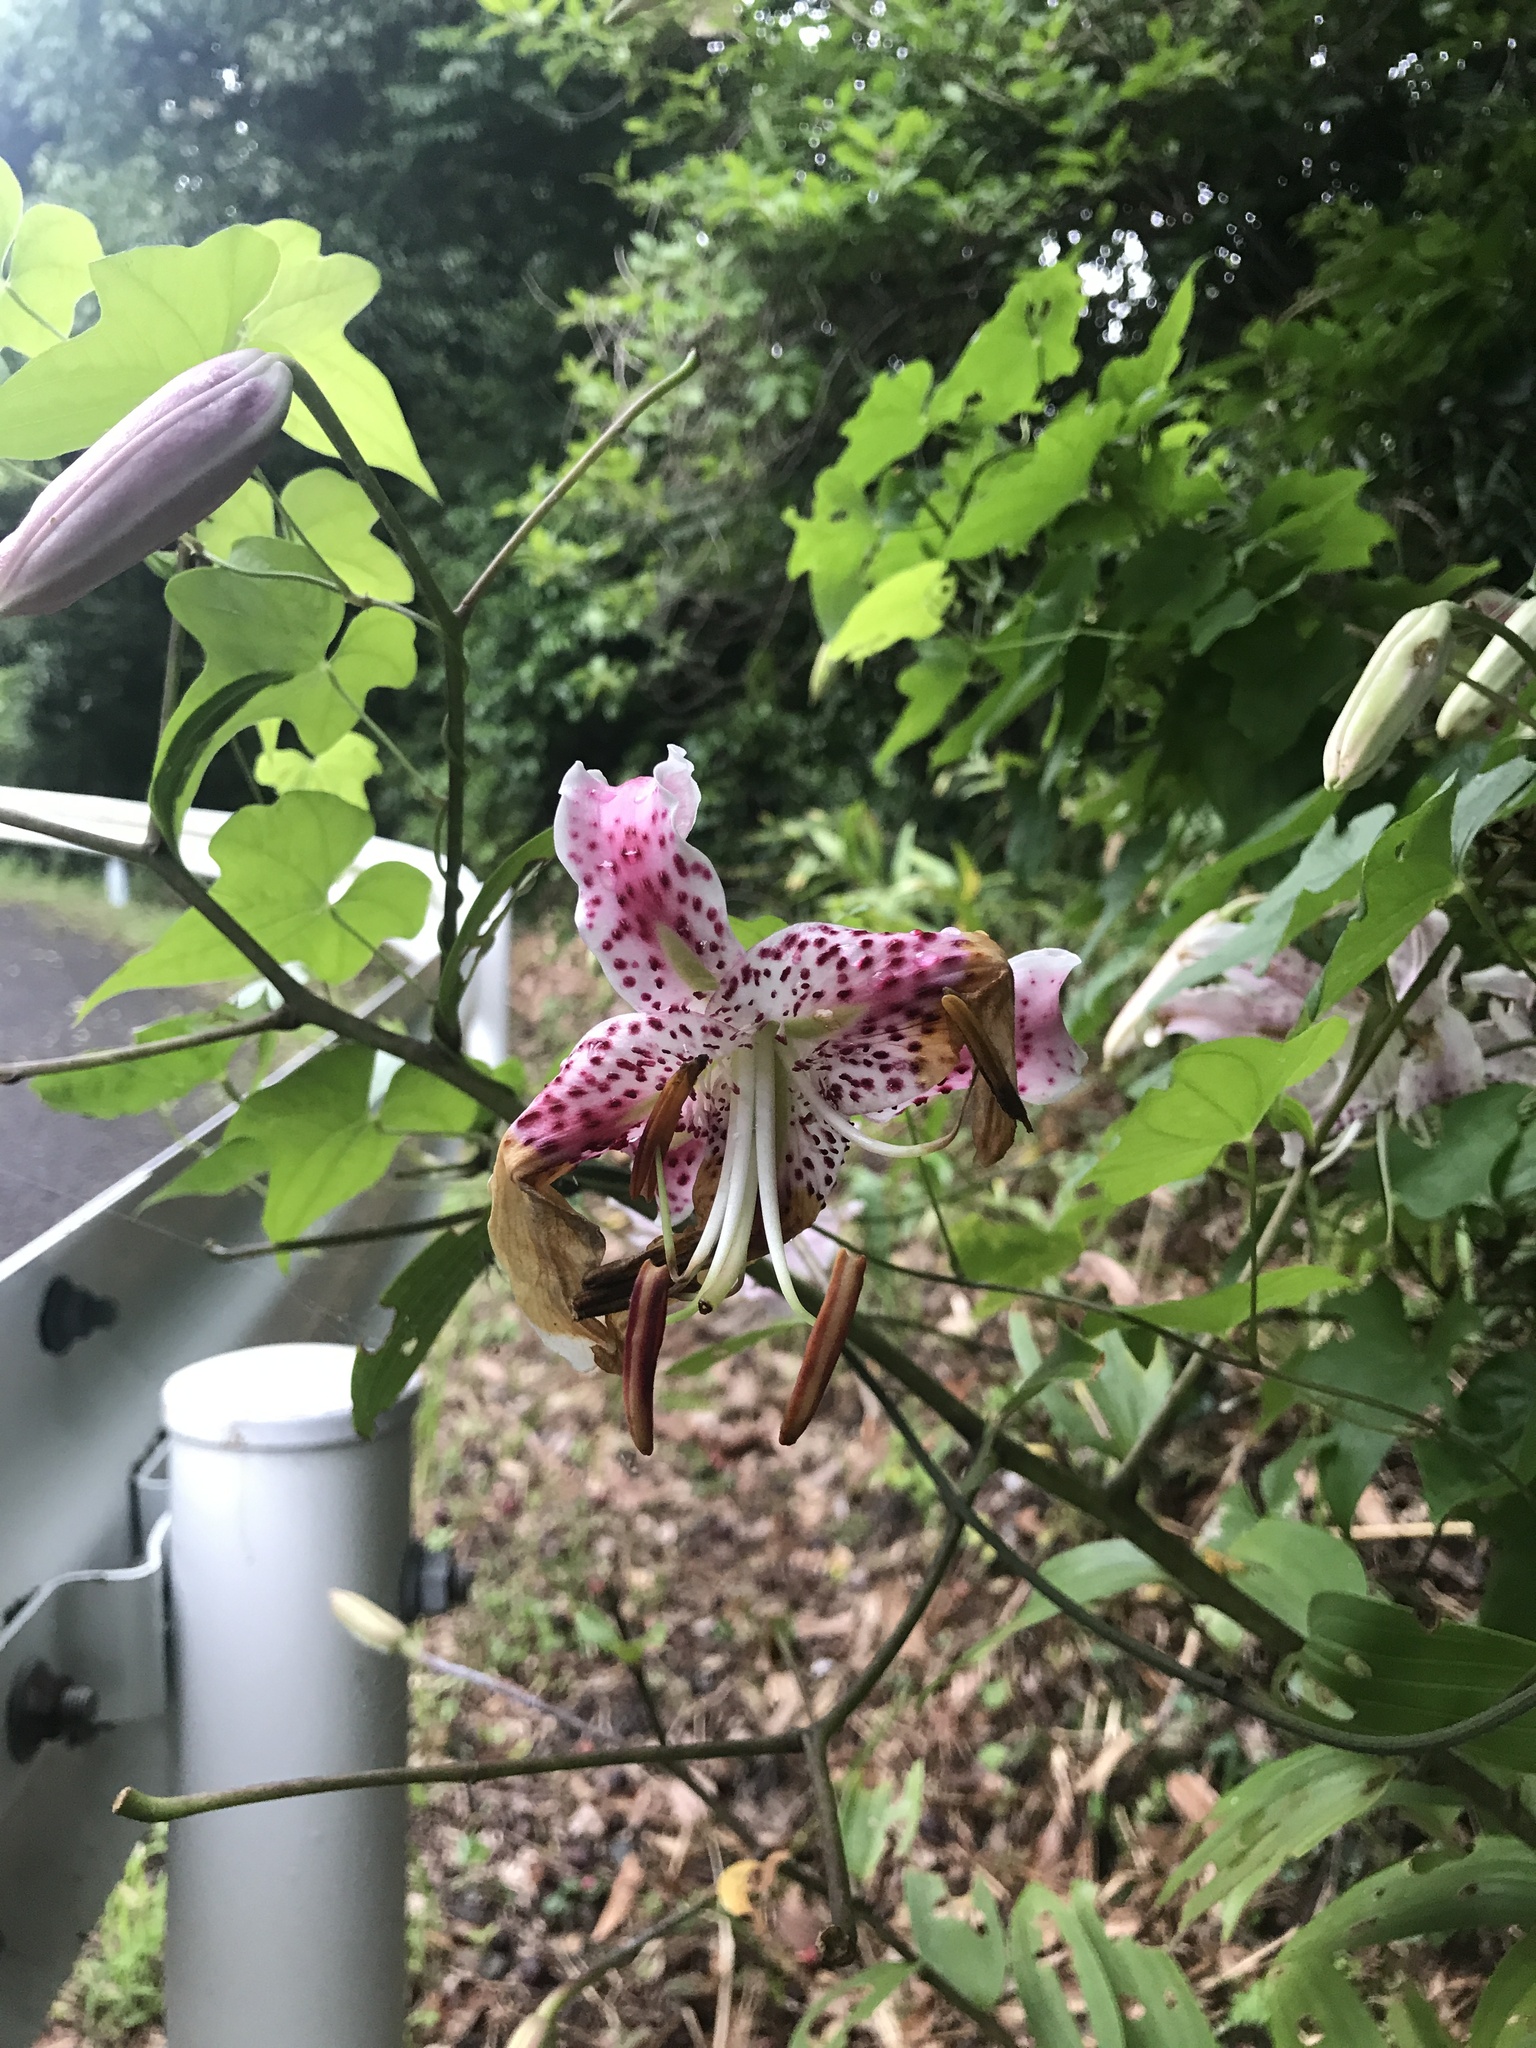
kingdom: Plantae
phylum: Tracheophyta
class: Liliopsida
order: Liliales
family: Liliaceae
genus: Lilium
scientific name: Lilium speciosum
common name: Japanese lily
